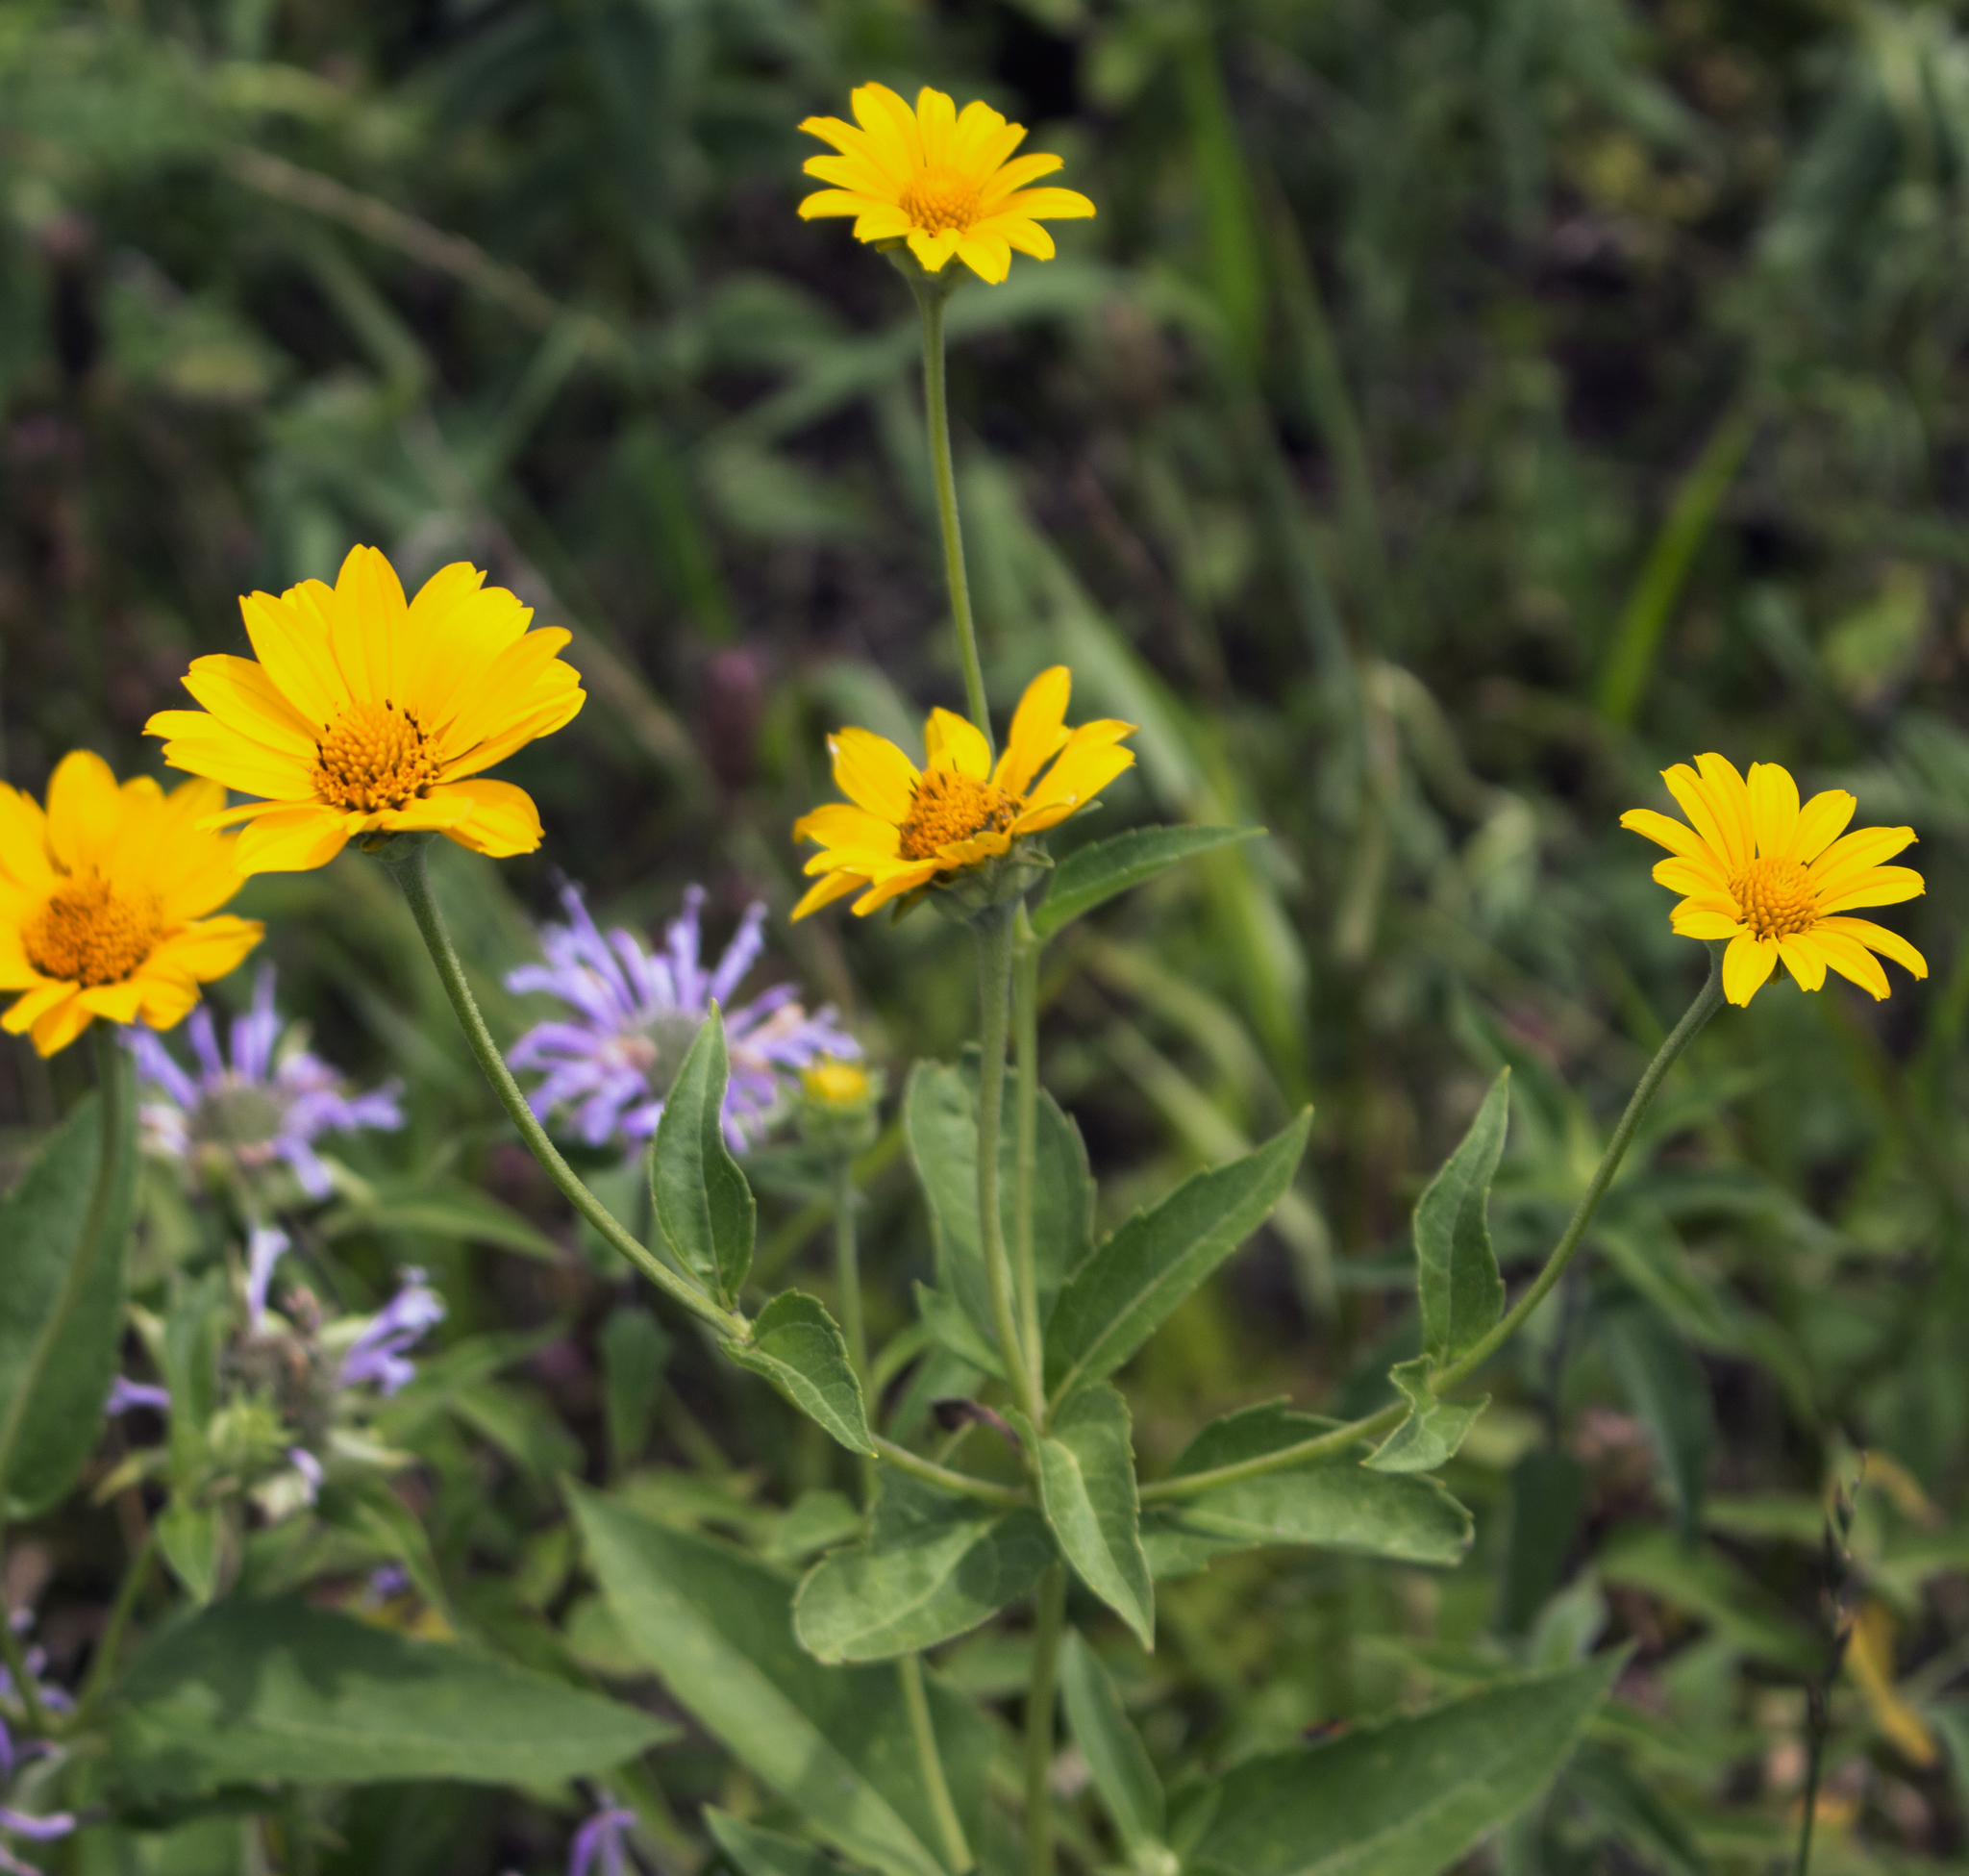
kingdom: Plantae
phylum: Tracheophyta
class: Magnoliopsida
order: Asterales
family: Asteraceae
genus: Heliopsis
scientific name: Heliopsis helianthoides
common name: False sunflower
